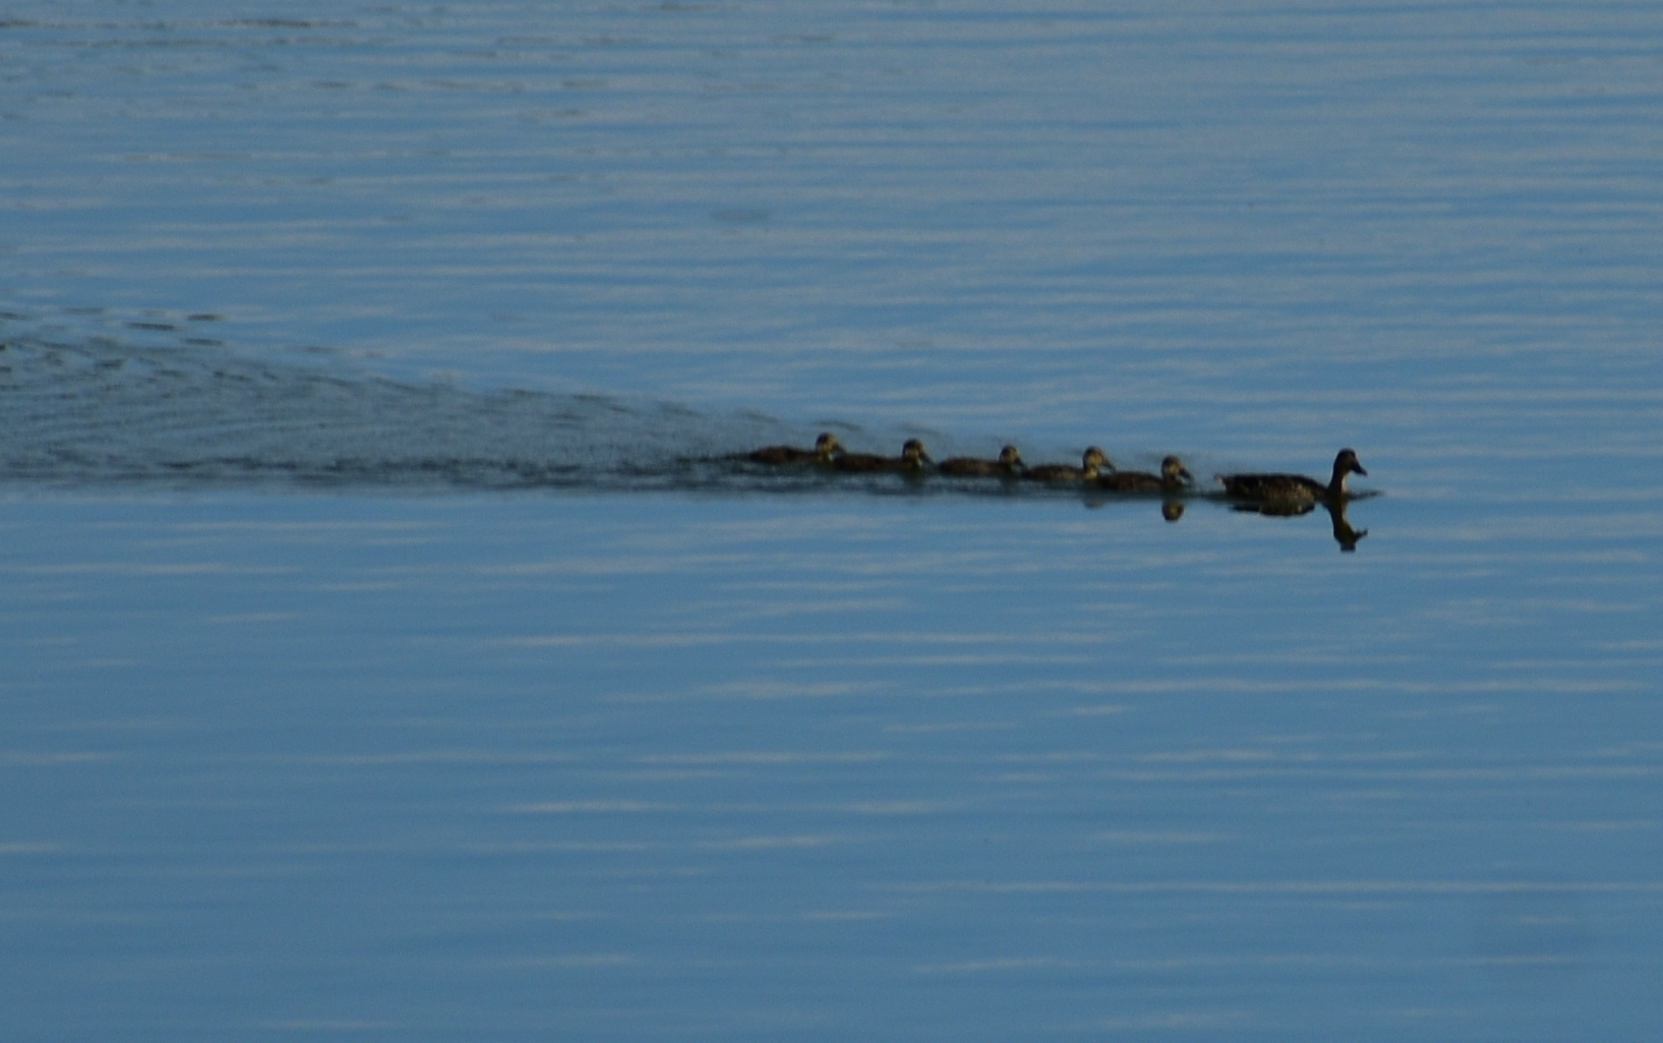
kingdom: Animalia
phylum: Chordata
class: Aves
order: Anseriformes
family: Anatidae
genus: Anas
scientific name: Anas platyrhynchos
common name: Mallard
